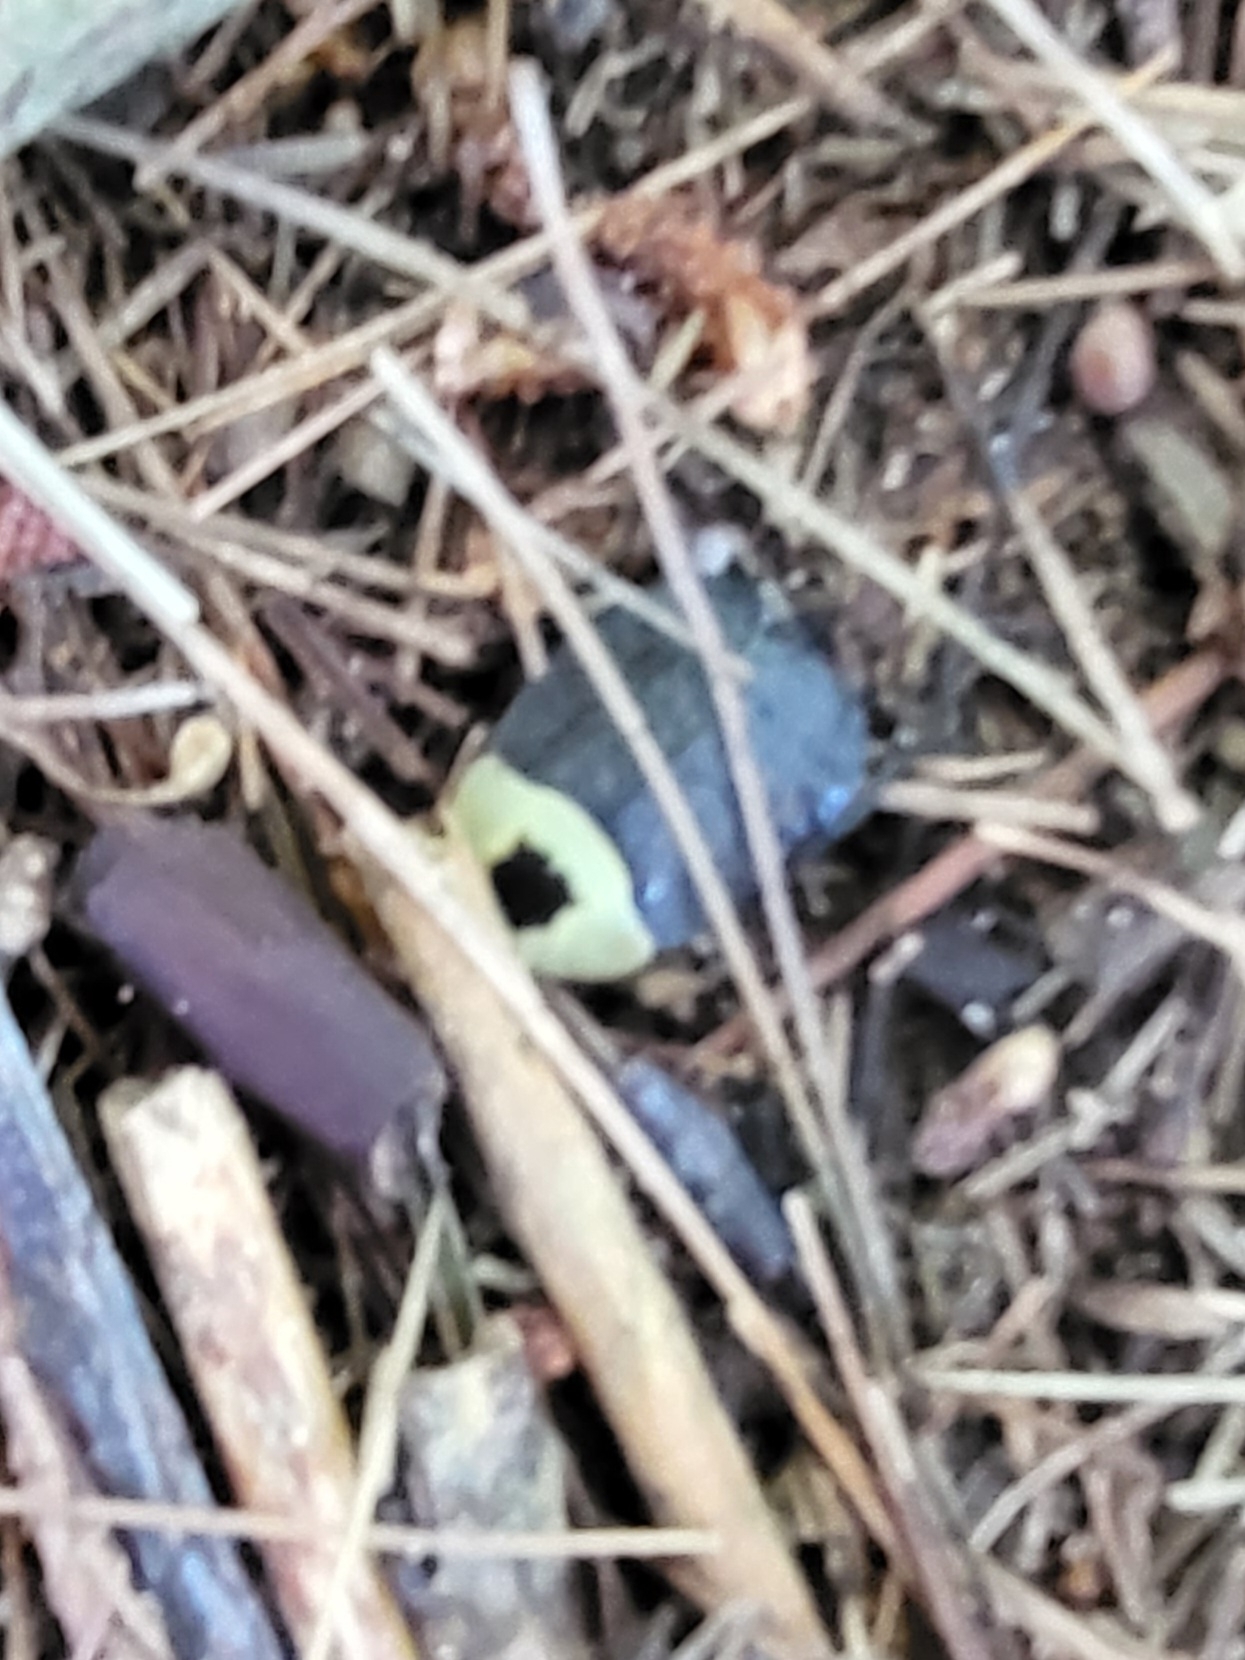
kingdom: Animalia
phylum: Arthropoda
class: Insecta
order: Coleoptera
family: Staphylinidae
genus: Necrophila
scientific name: Necrophila americana
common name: American carrion beetle
